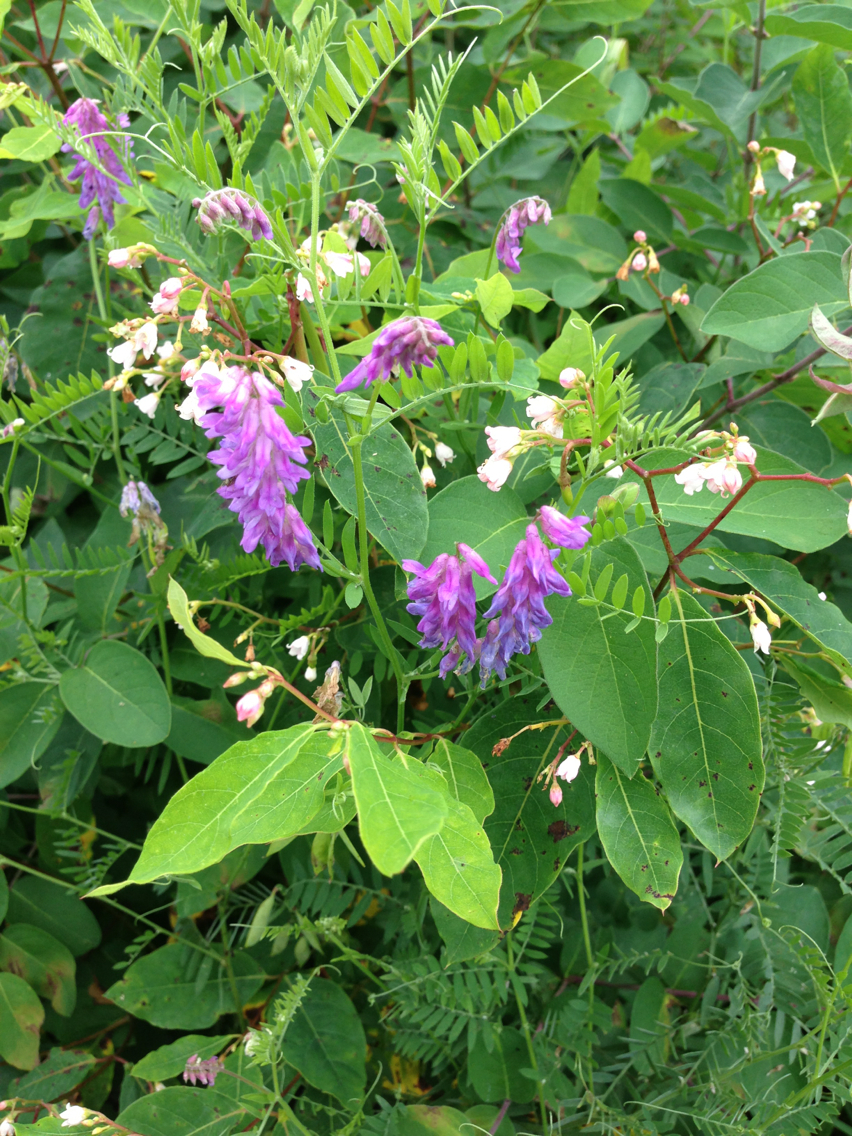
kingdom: Plantae
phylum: Tracheophyta
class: Magnoliopsida
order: Fabales
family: Fabaceae
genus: Vicia
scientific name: Vicia cracca
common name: Bird vetch
